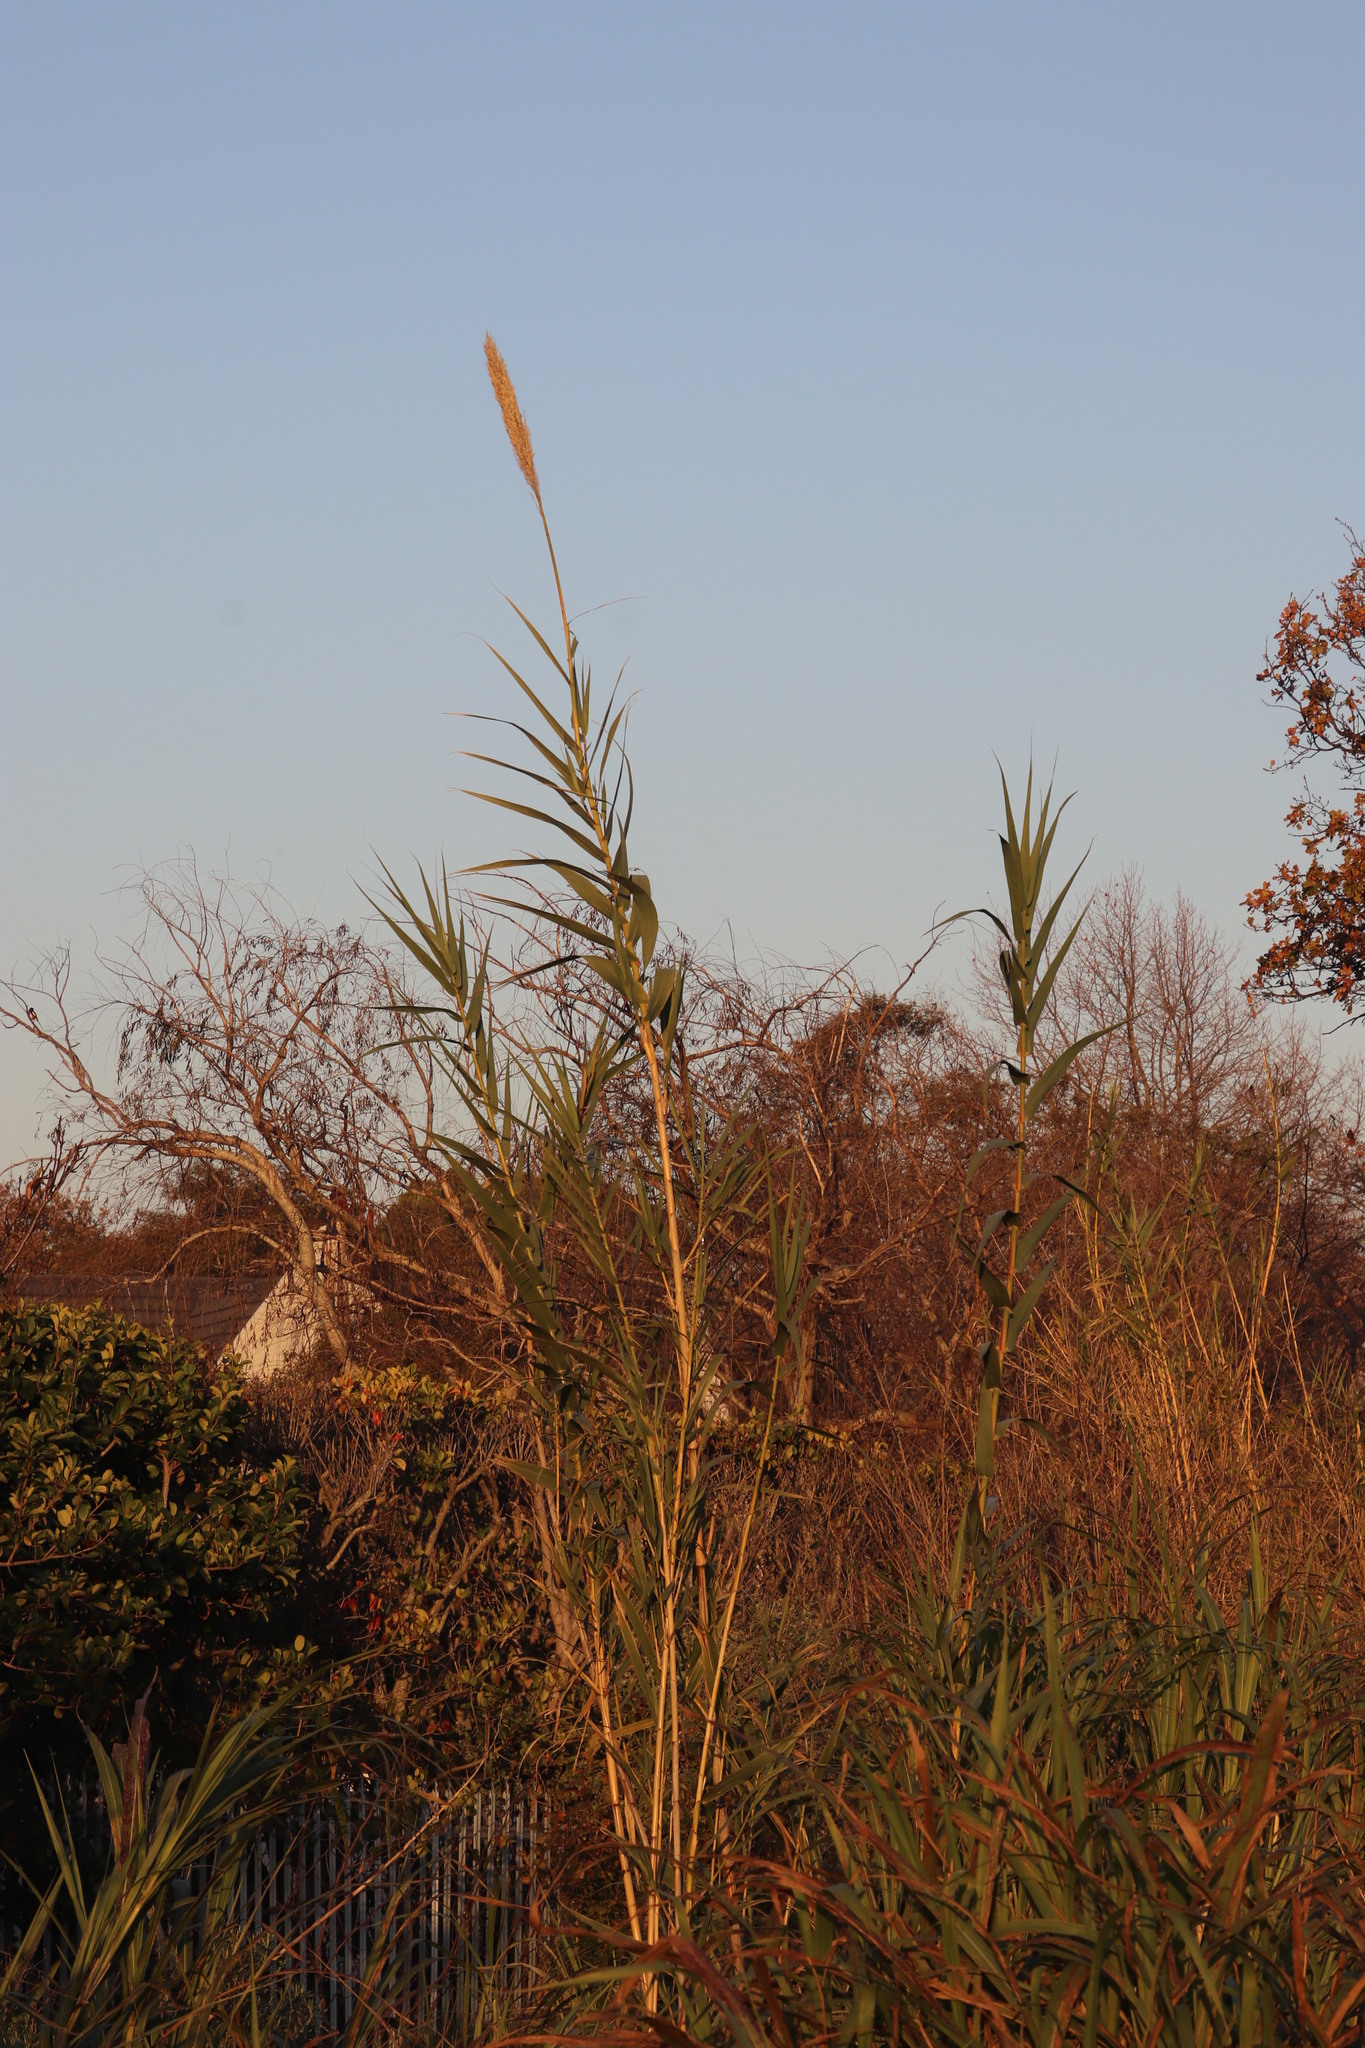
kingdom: Plantae
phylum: Tracheophyta
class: Liliopsida
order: Poales
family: Poaceae
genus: Arundo
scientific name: Arundo donax
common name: Giant reed
